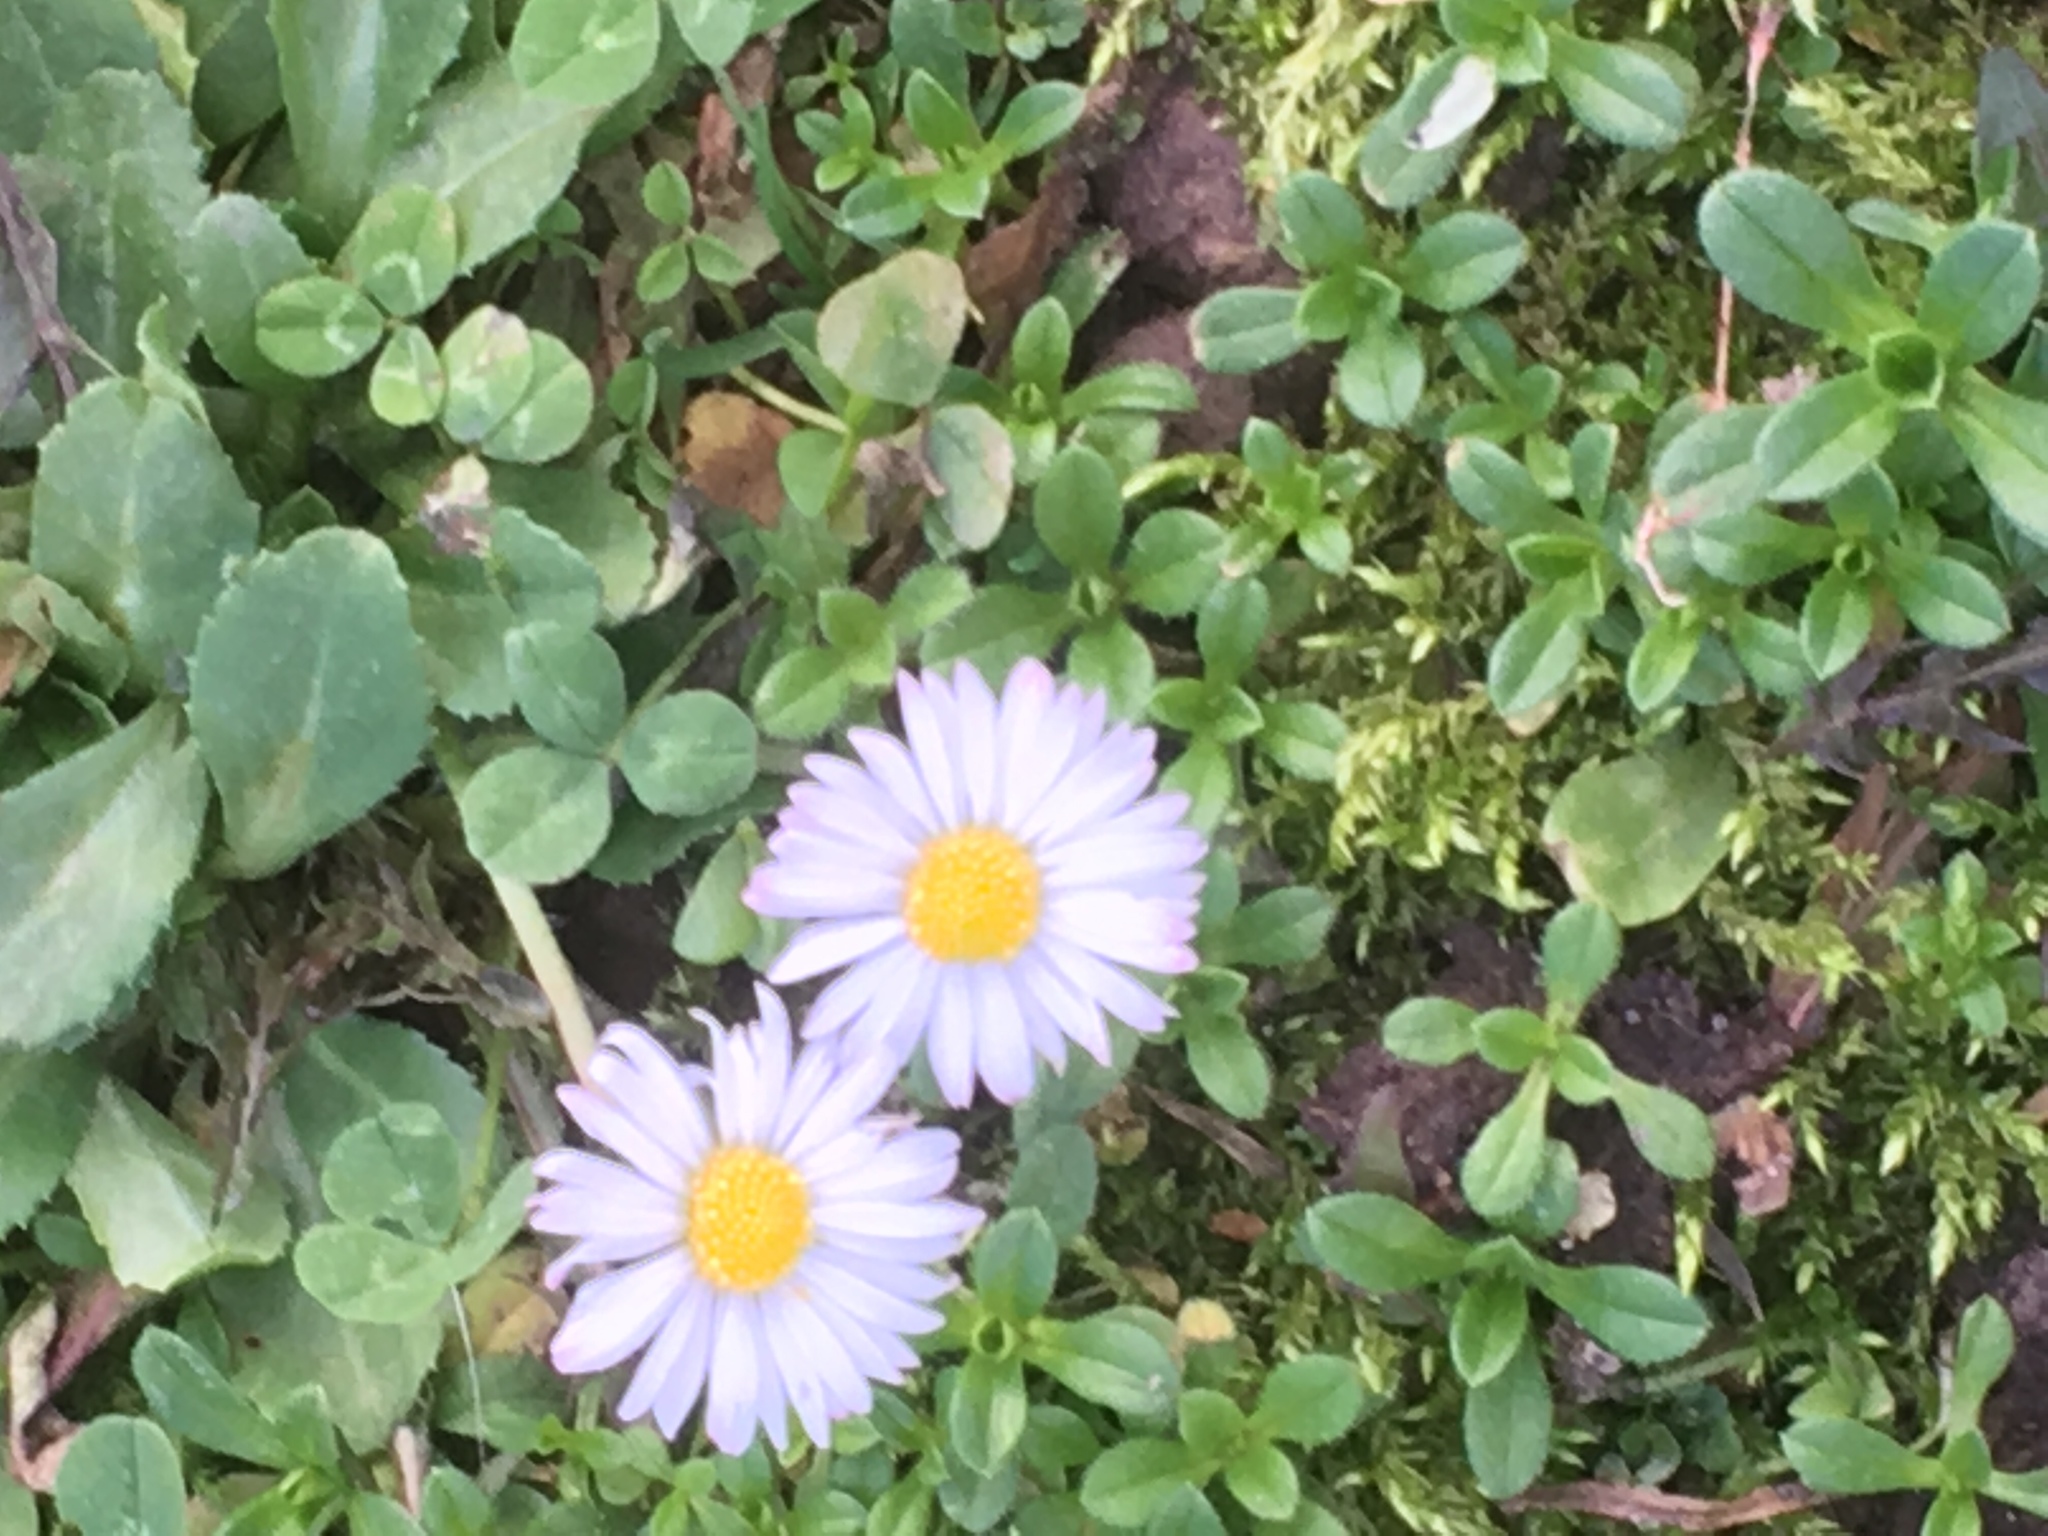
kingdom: Plantae
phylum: Tracheophyta
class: Magnoliopsida
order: Asterales
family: Asteraceae
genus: Bellis
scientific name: Bellis perennis
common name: Lawndaisy
